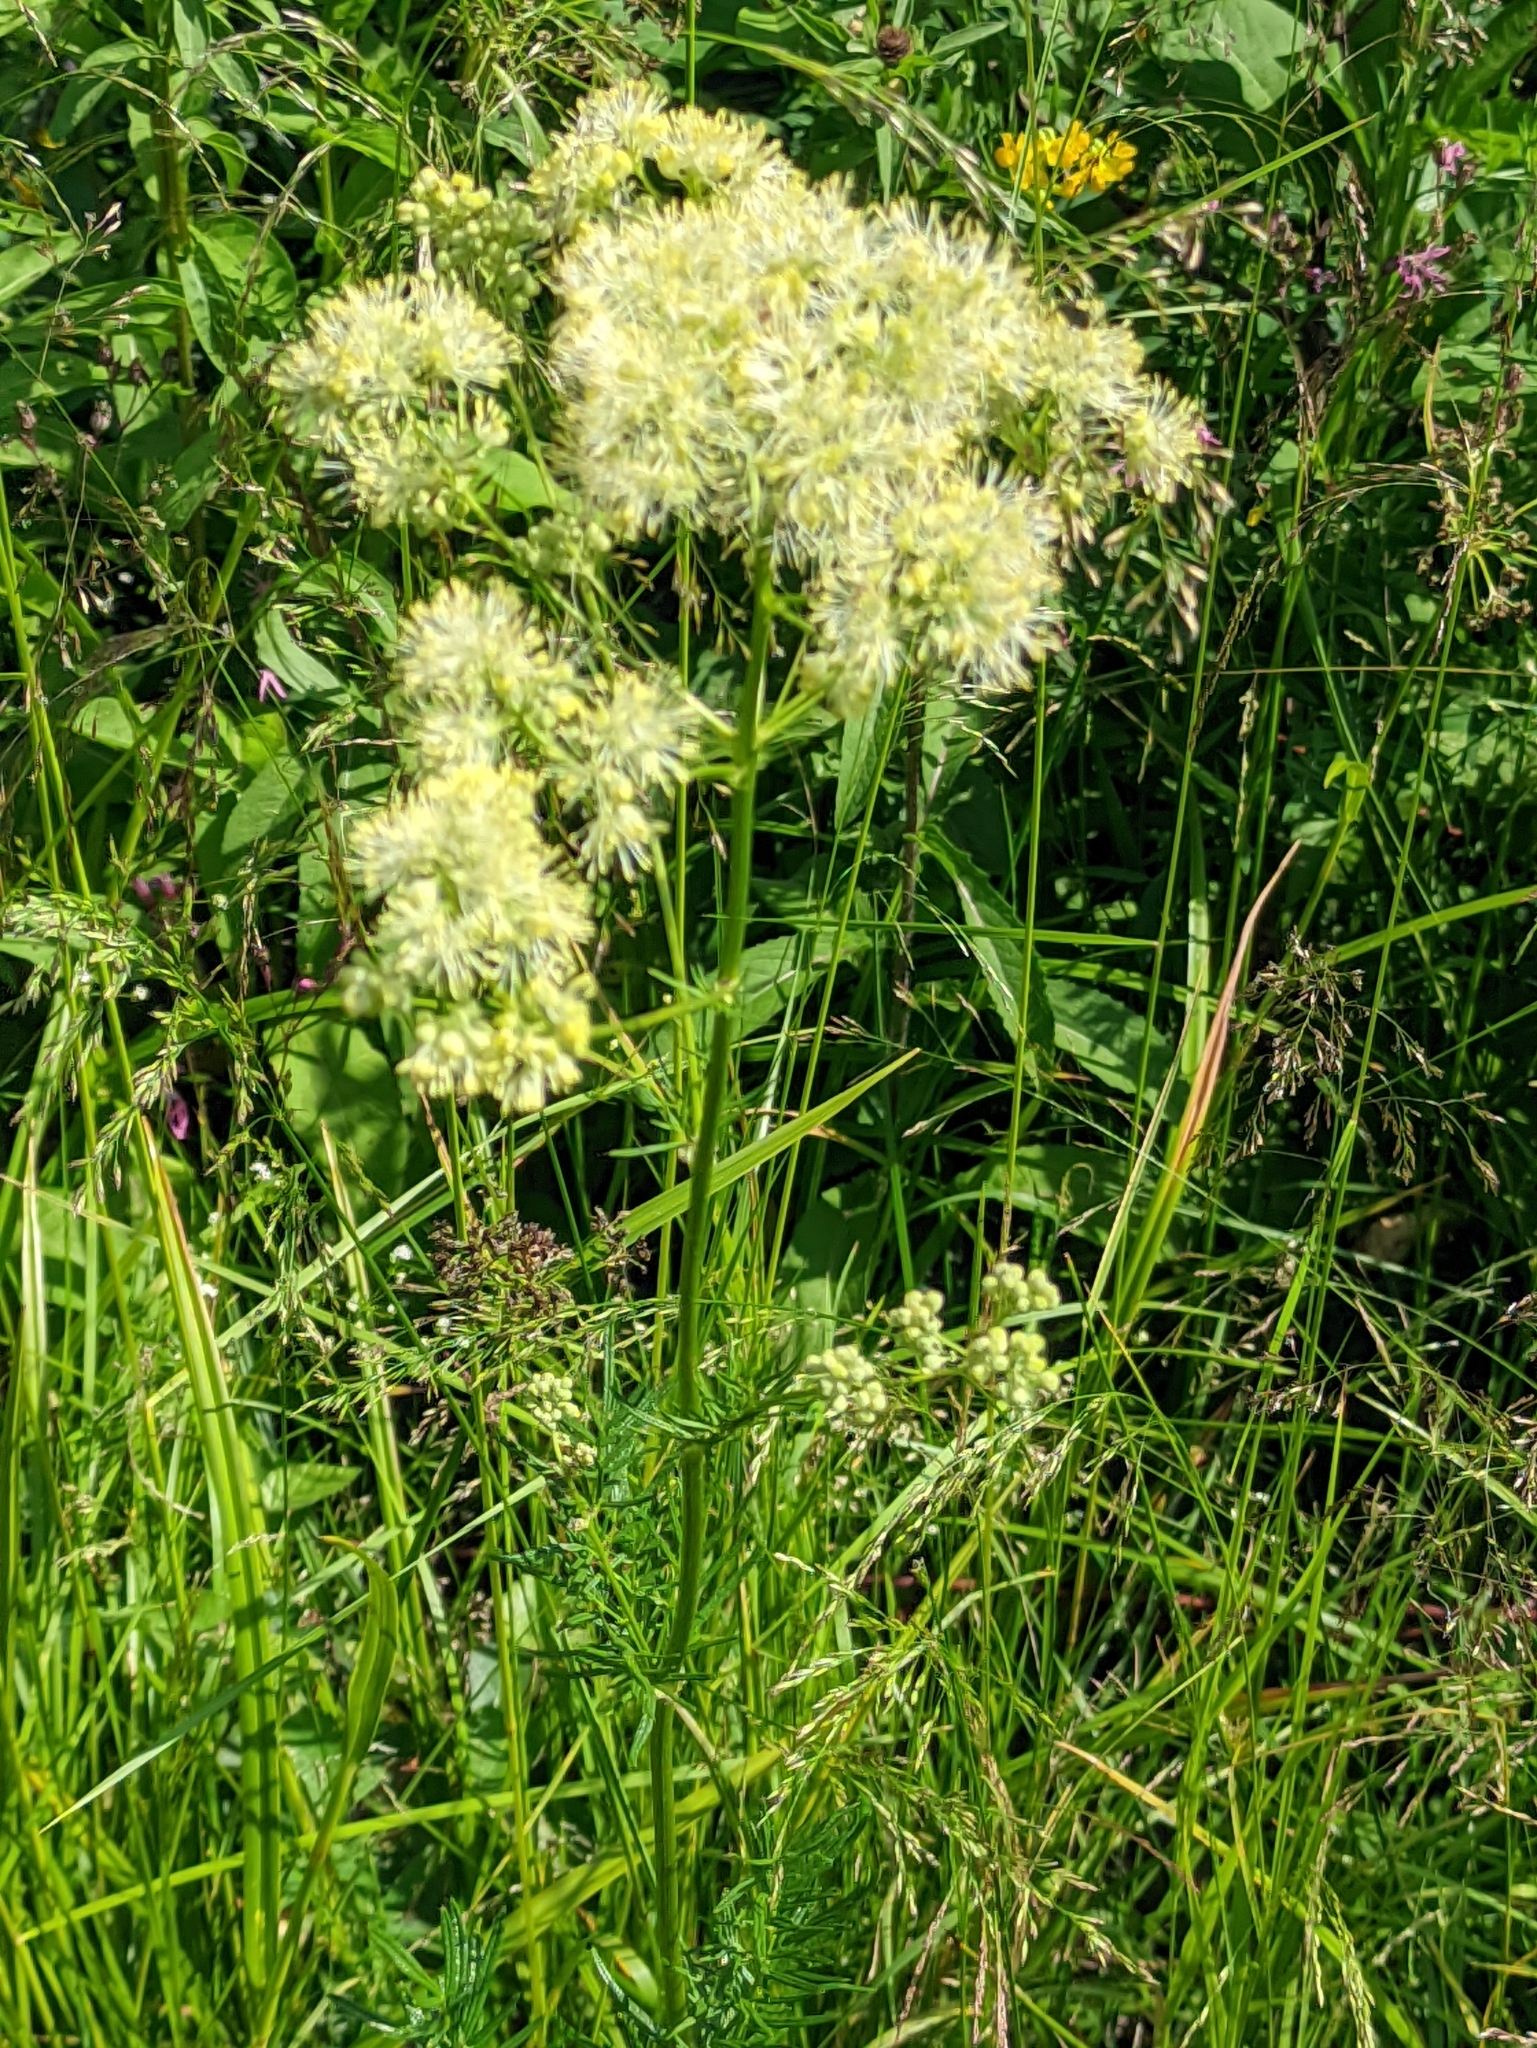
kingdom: Plantae
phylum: Tracheophyta
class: Magnoliopsida
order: Ranunculales
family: Ranunculaceae
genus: Thalictrum
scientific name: Thalictrum lucidum
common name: Shining meadow-rue
